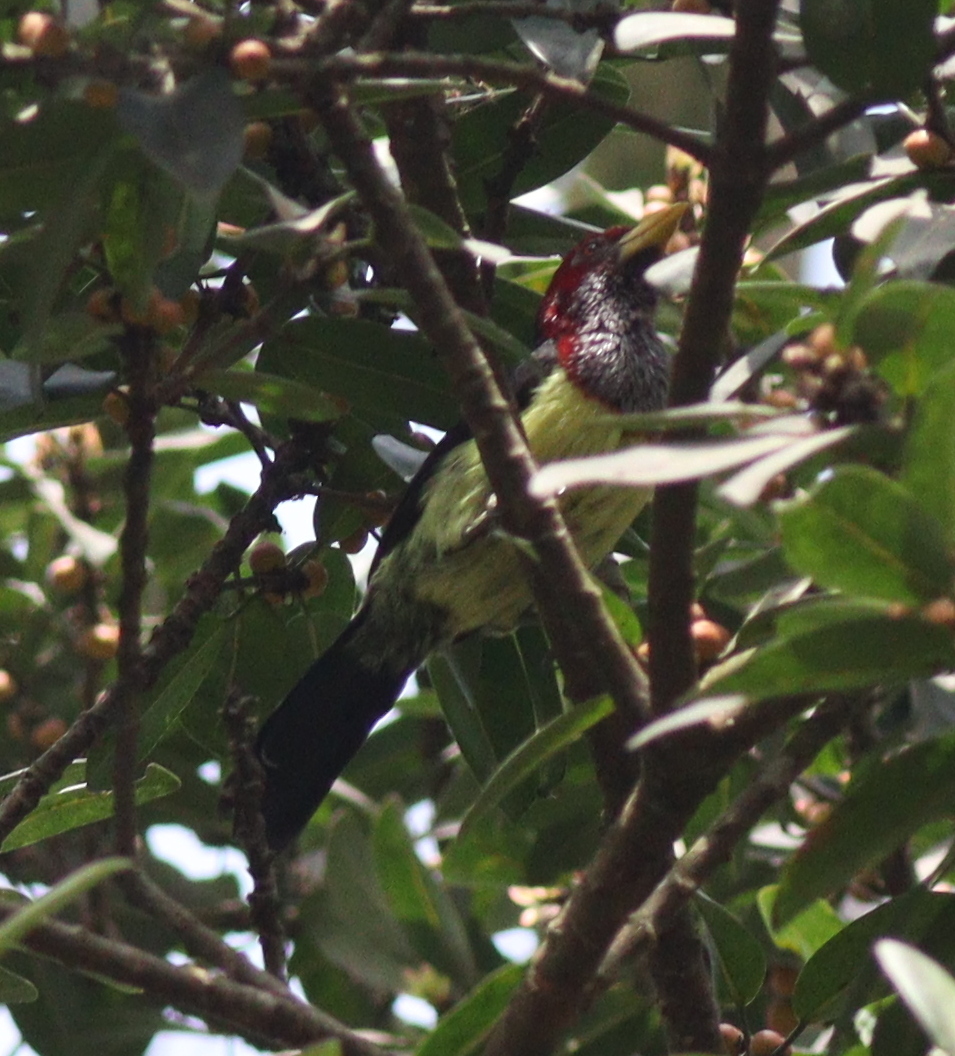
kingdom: Animalia
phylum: Chordata
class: Aves
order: Piciformes
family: Lybiidae
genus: Trachyphonus
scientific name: Trachyphonus purpuratus
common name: Yellow-billed barbet
